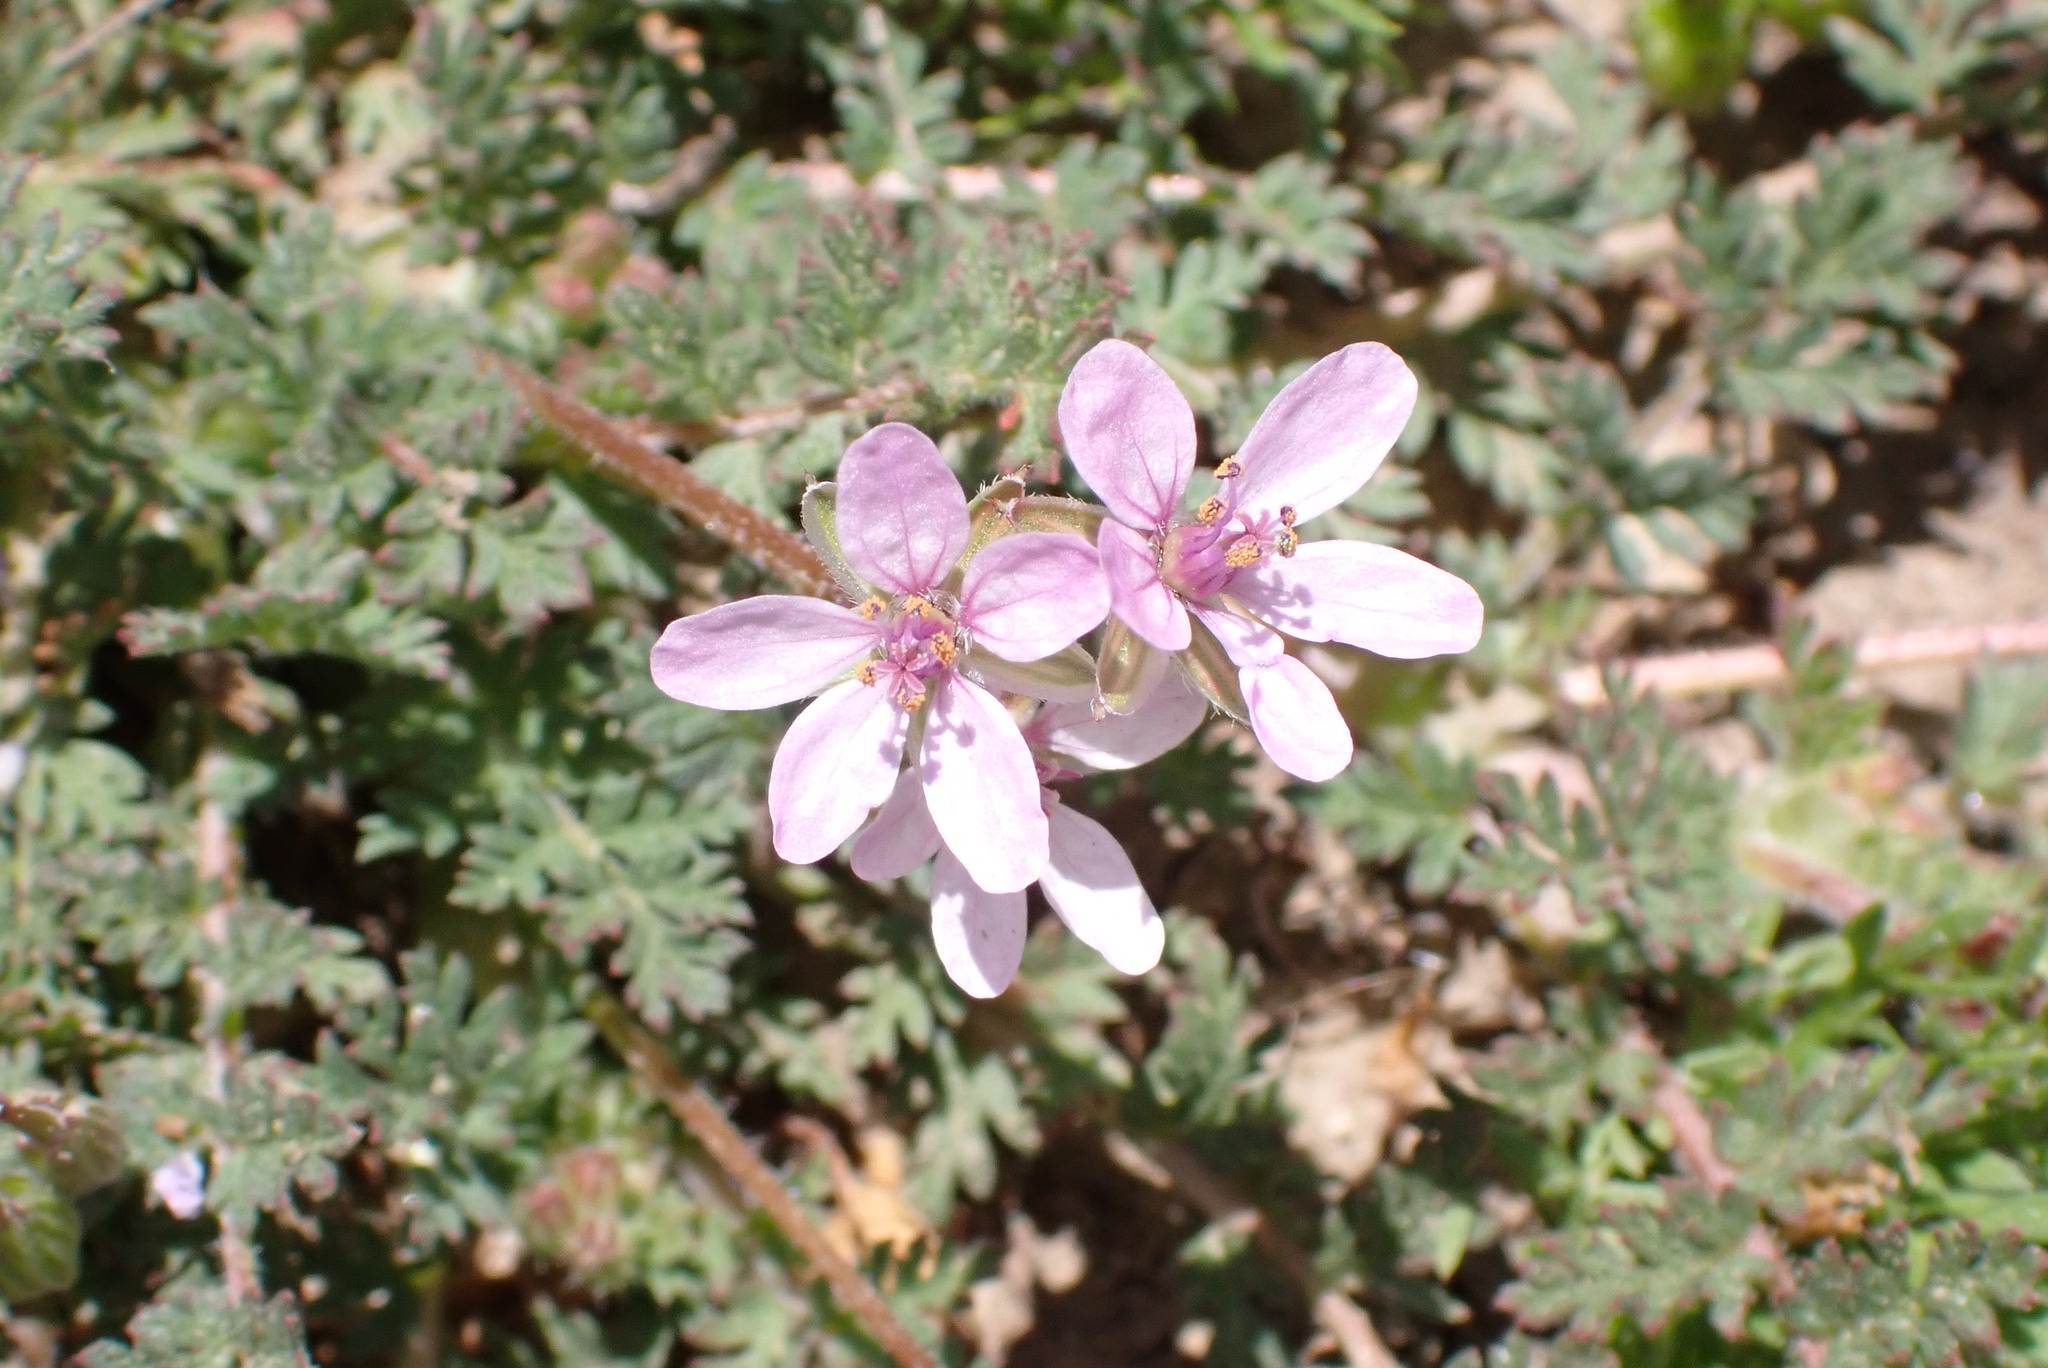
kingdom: Plantae
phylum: Tracheophyta
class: Magnoliopsida
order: Geraniales
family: Geraniaceae
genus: Erodium
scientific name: Erodium cicutarium
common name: Common stork's-bill
